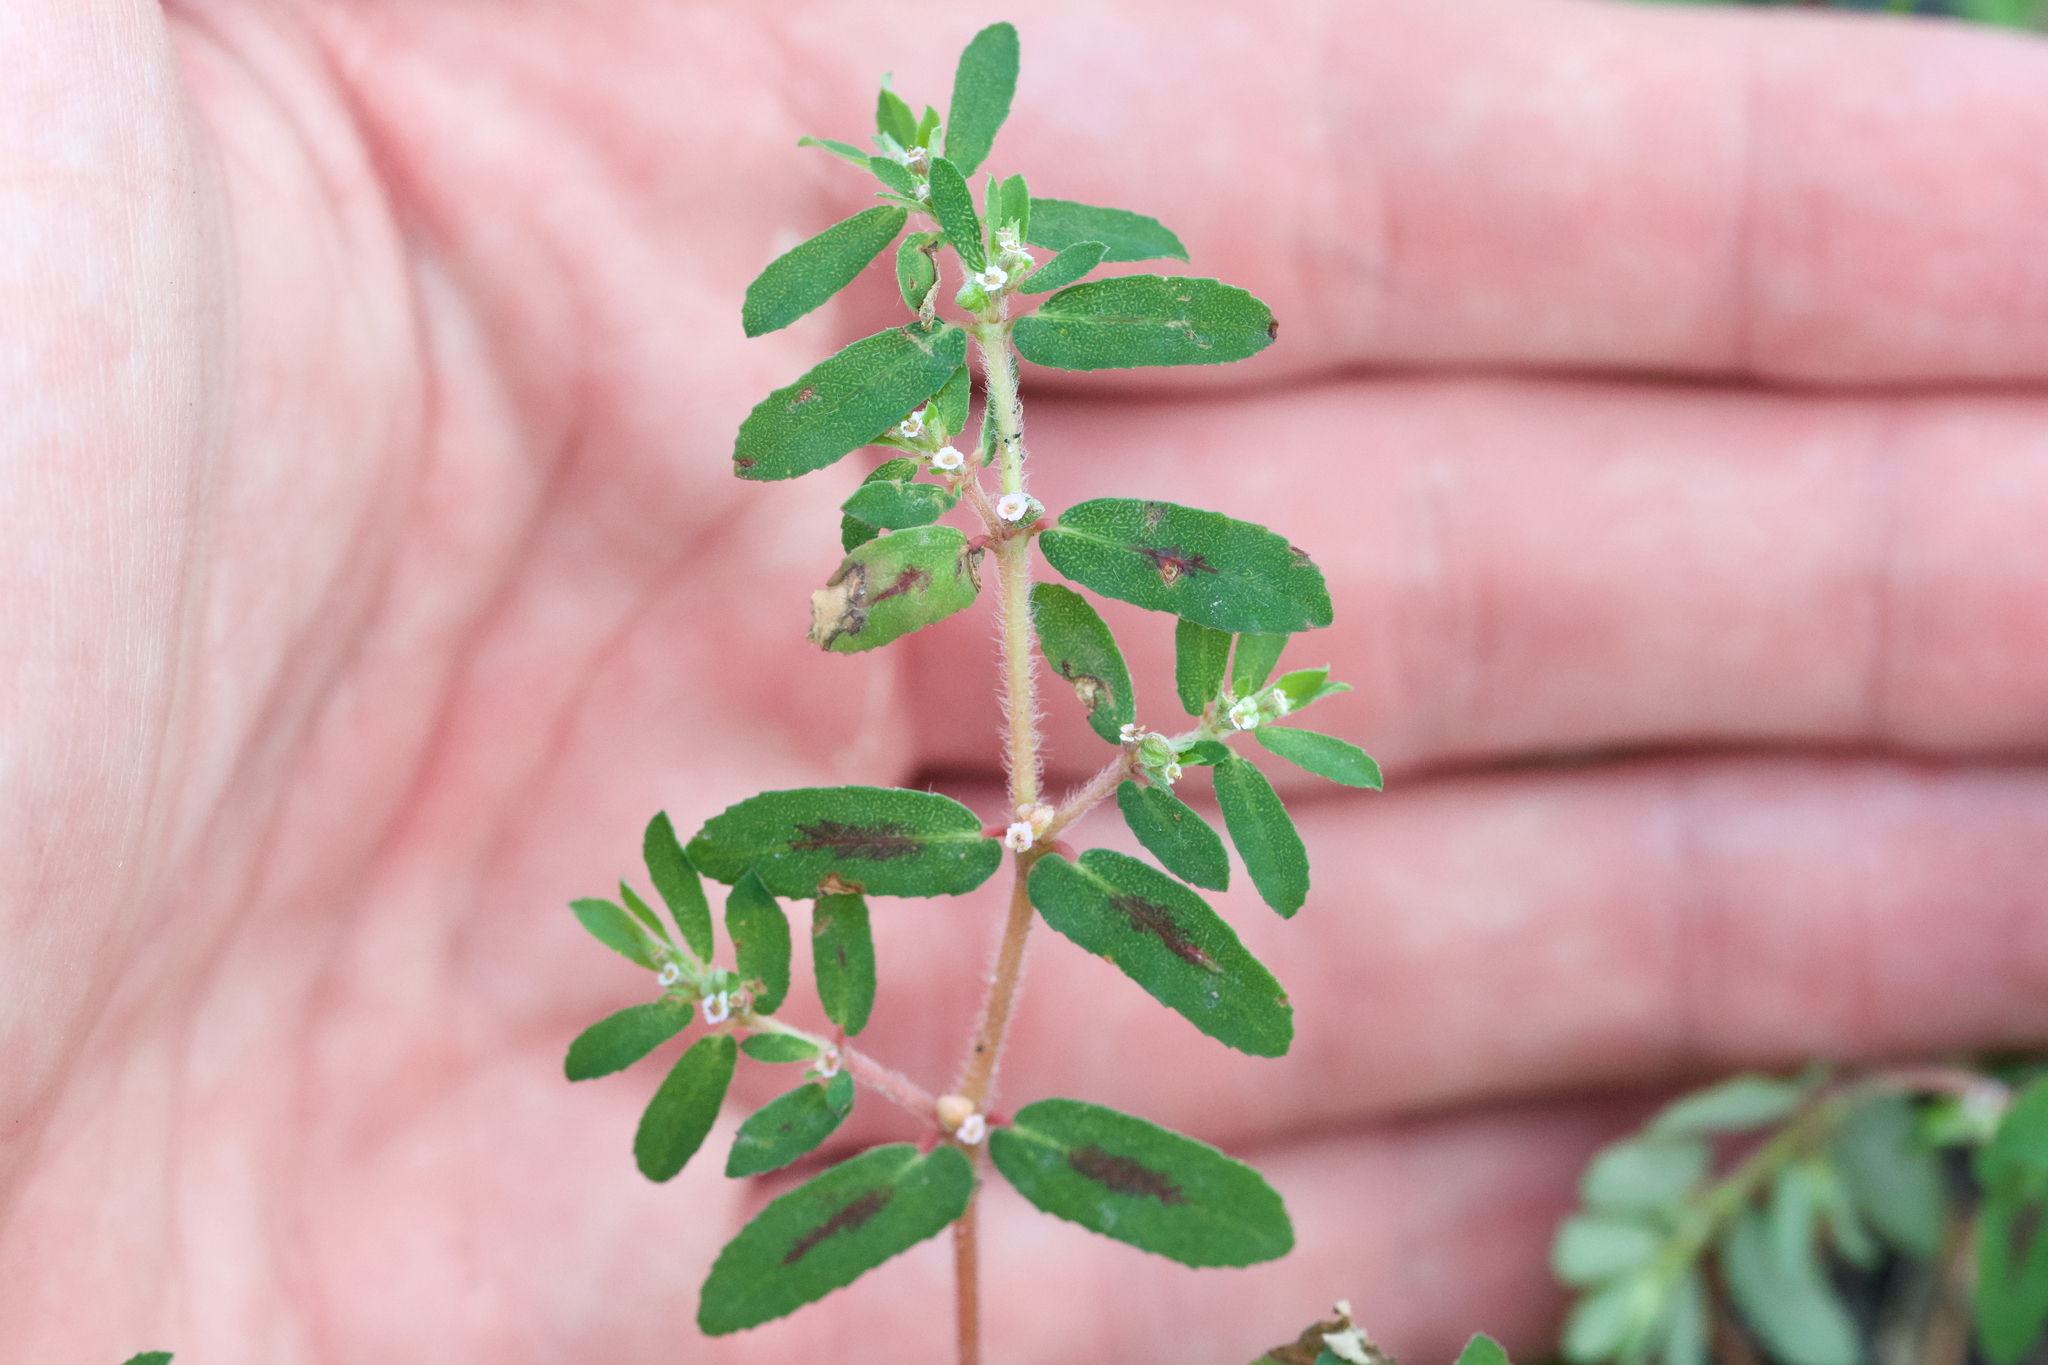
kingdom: Plantae
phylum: Tracheophyta
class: Magnoliopsida
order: Malpighiales
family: Euphorbiaceae
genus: Euphorbia
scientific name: Euphorbia maculata
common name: Spotted spurge
